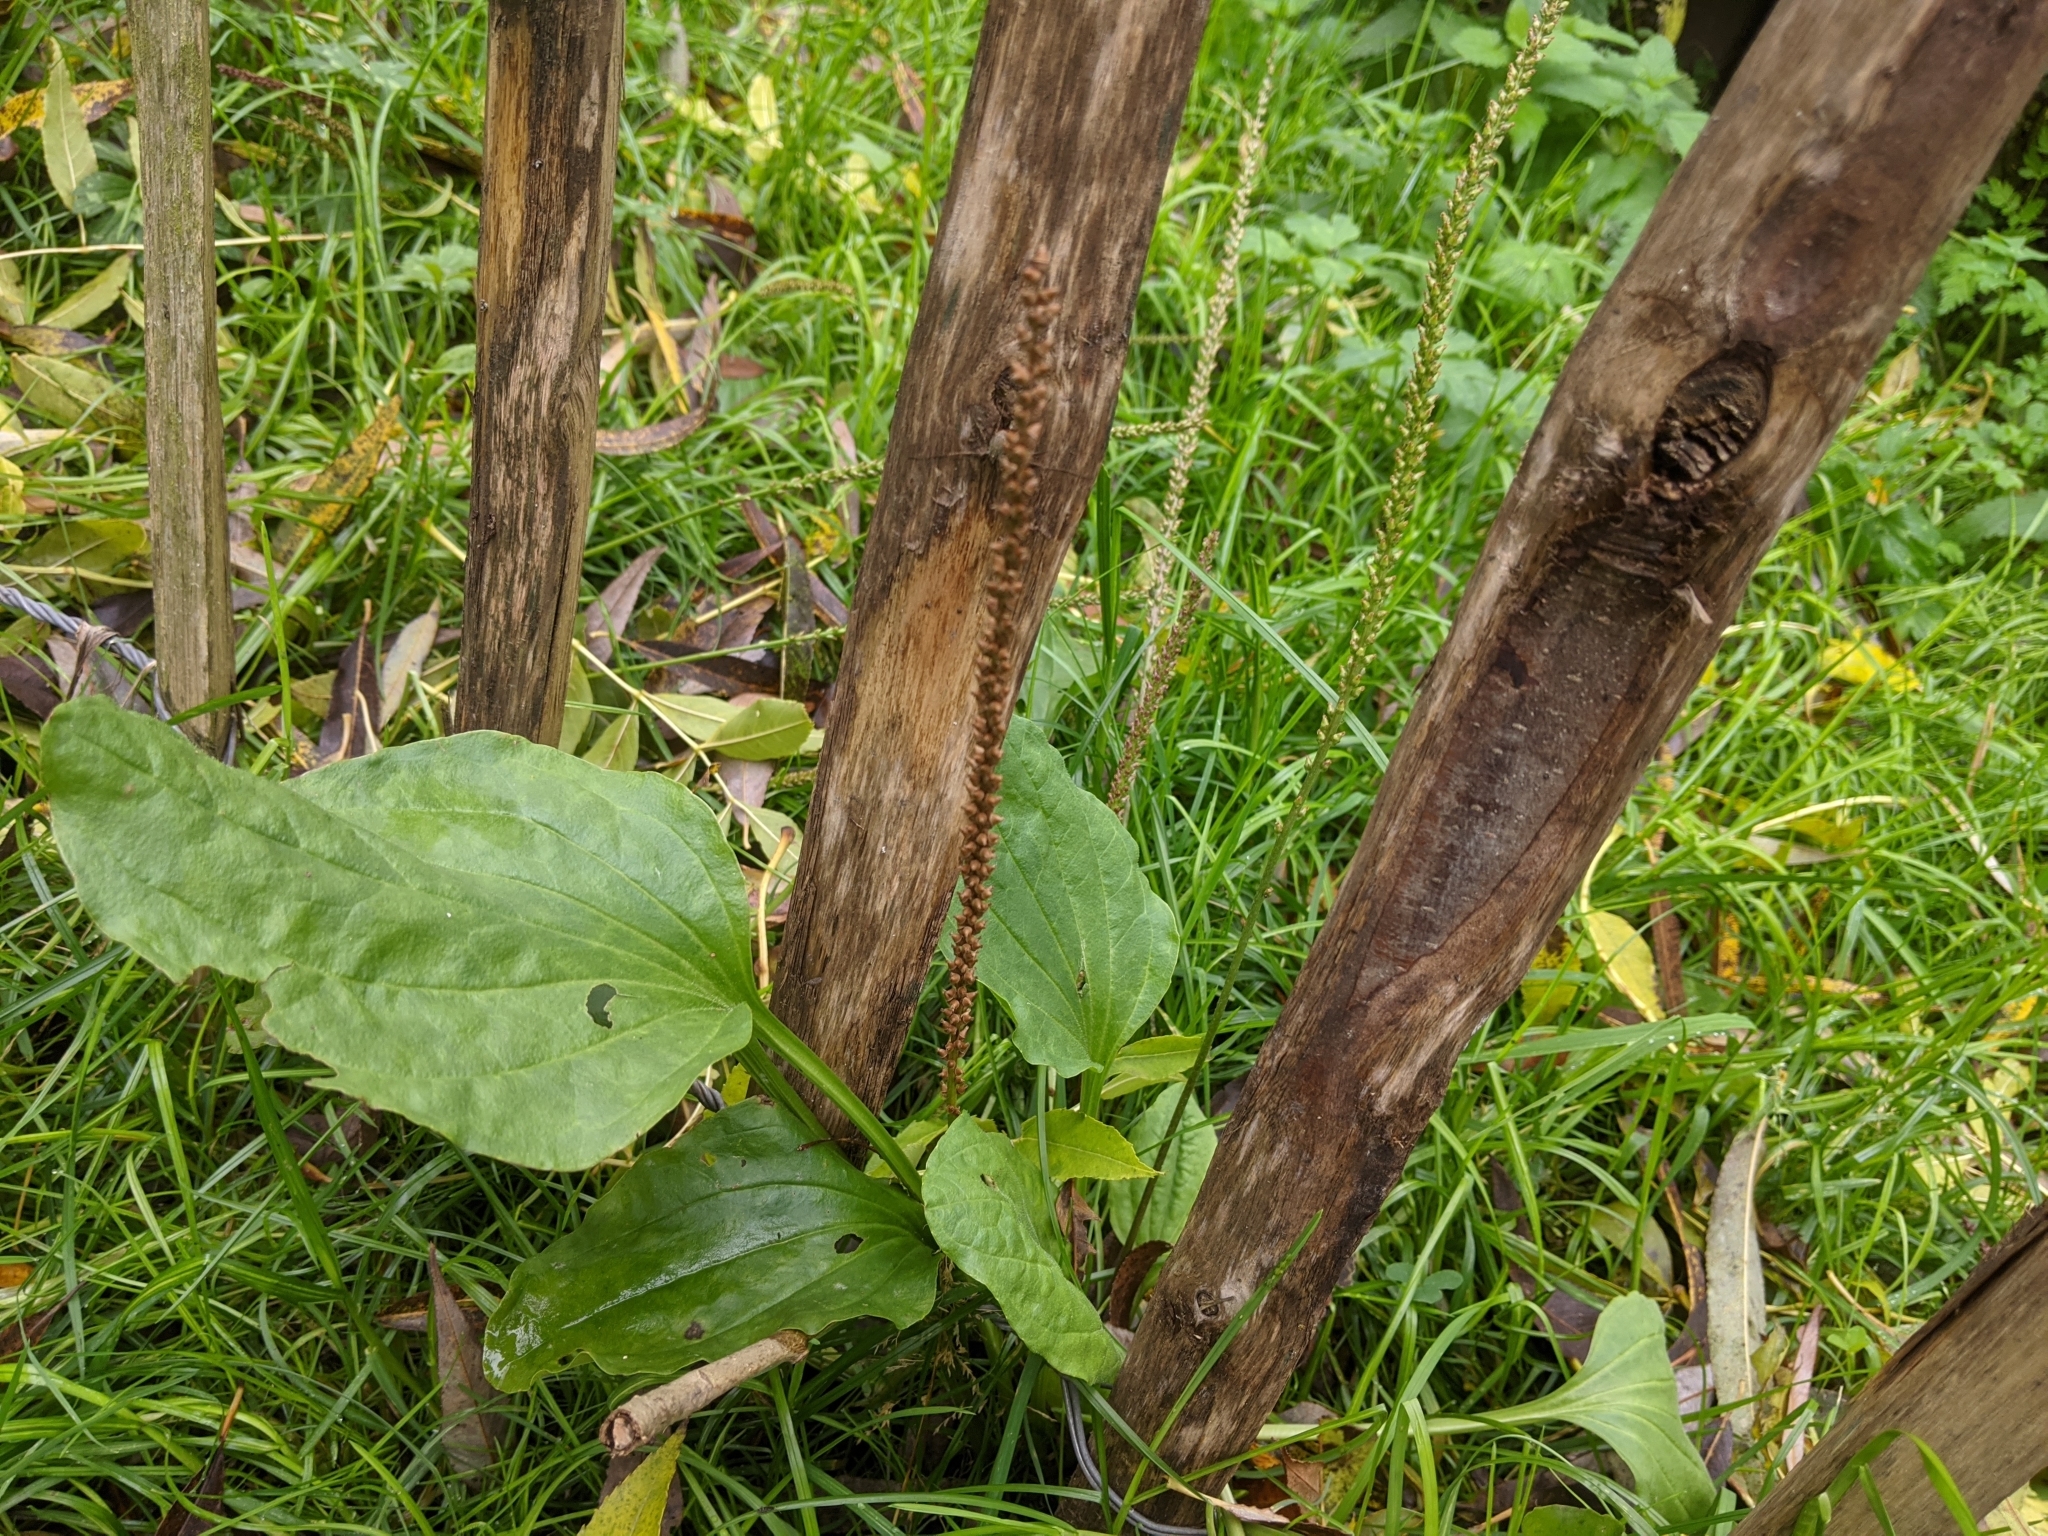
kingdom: Plantae
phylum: Tracheophyta
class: Magnoliopsida
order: Lamiales
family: Plantaginaceae
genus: Plantago
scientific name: Plantago major
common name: Common plantain
